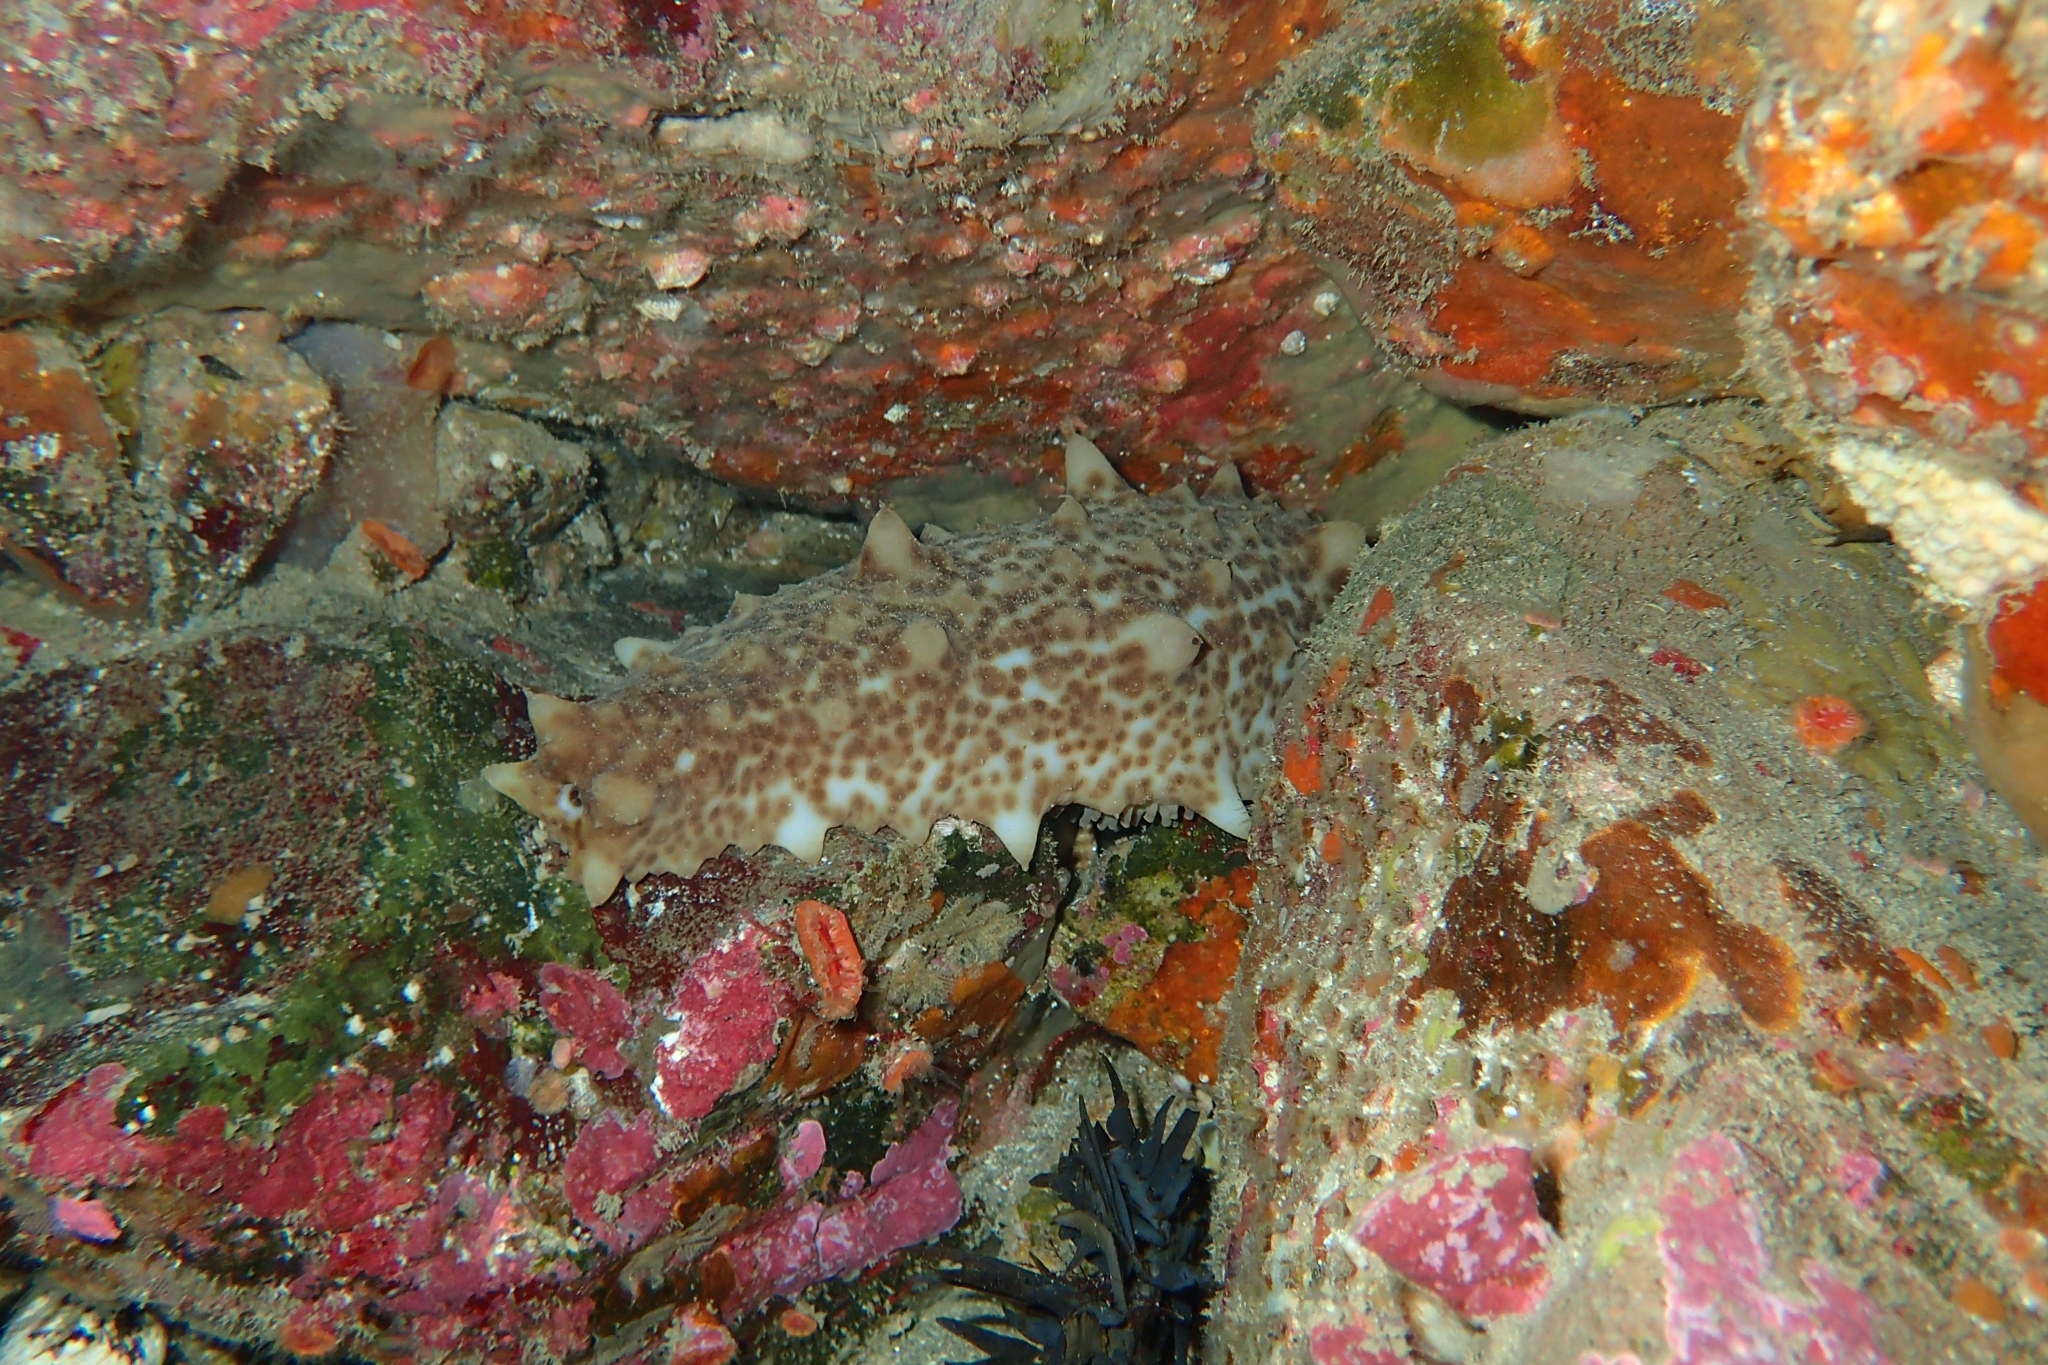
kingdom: Animalia
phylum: Echinodermata
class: Holothuroidea
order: Synallactida
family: Stichopodidae
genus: Australostichopus
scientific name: Australostichopus mollis
